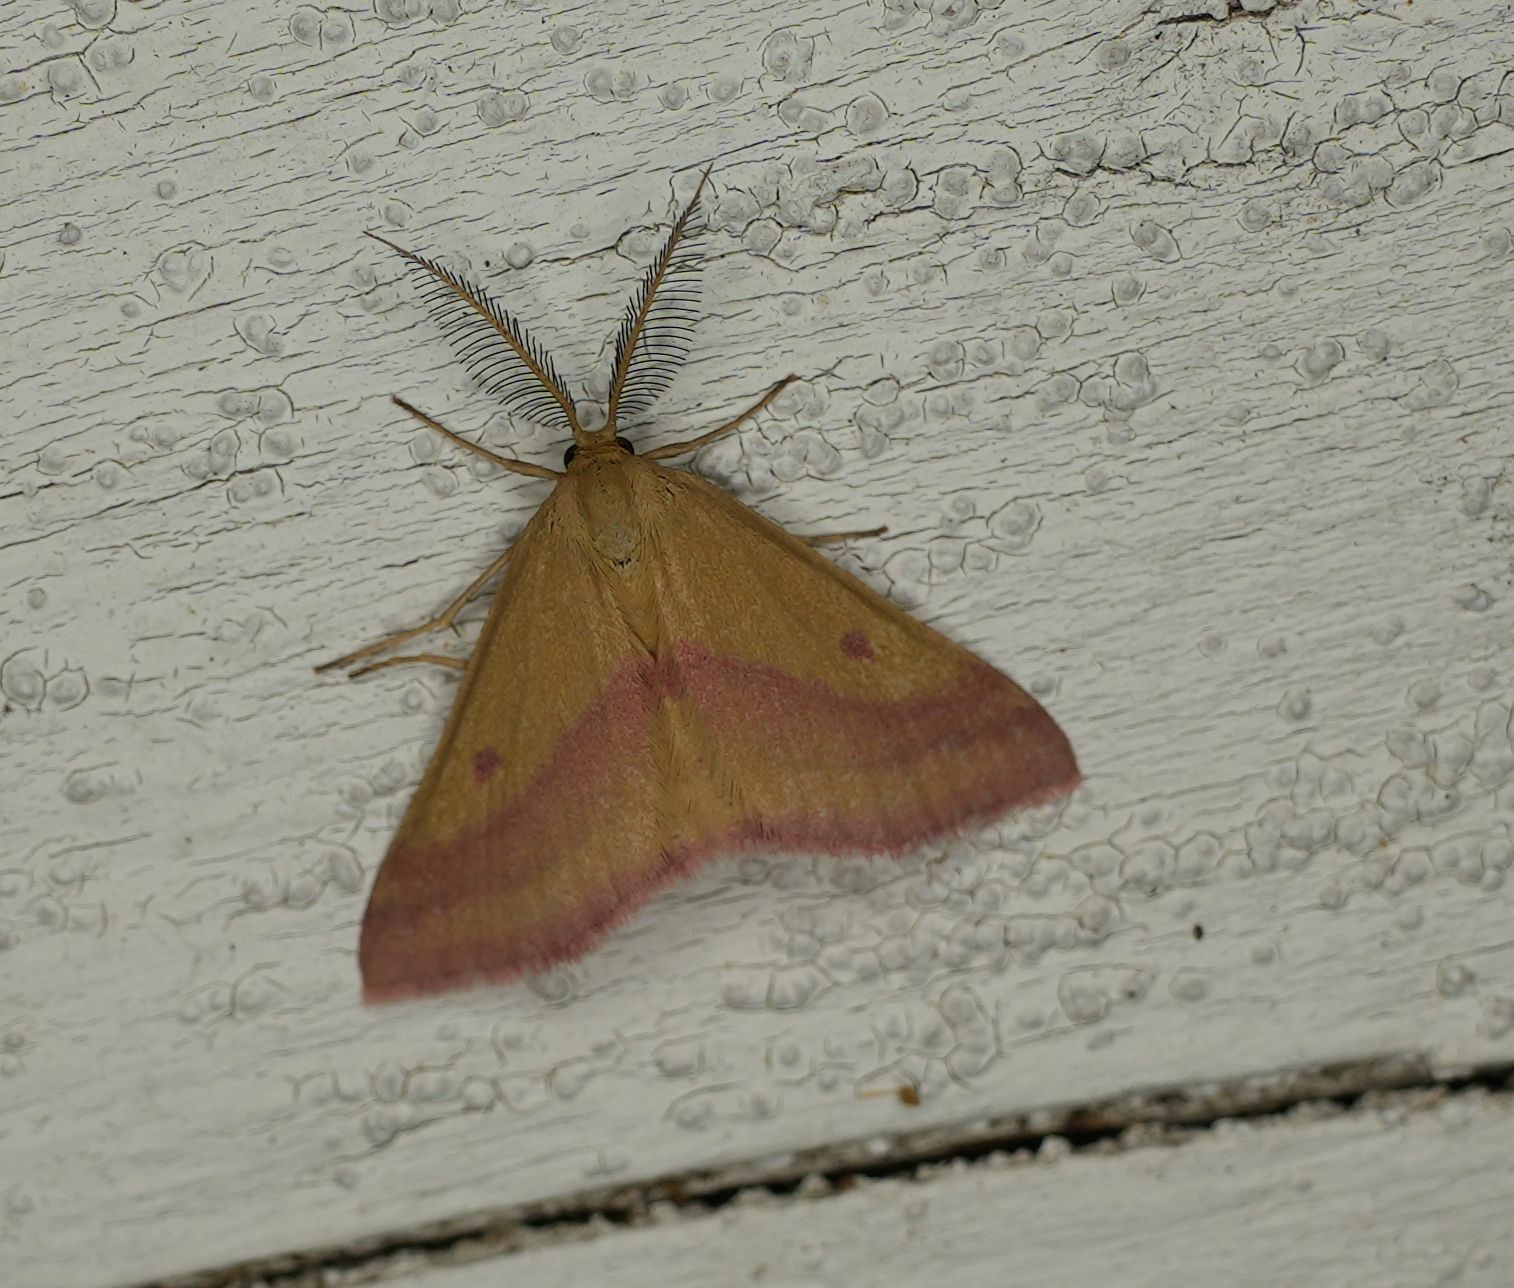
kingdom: Animalia
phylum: Arthropoda
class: Insecta
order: Lepidoptera
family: Geometridae
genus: Haematopis
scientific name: Haematopis grataria
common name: Chickweed geometer
